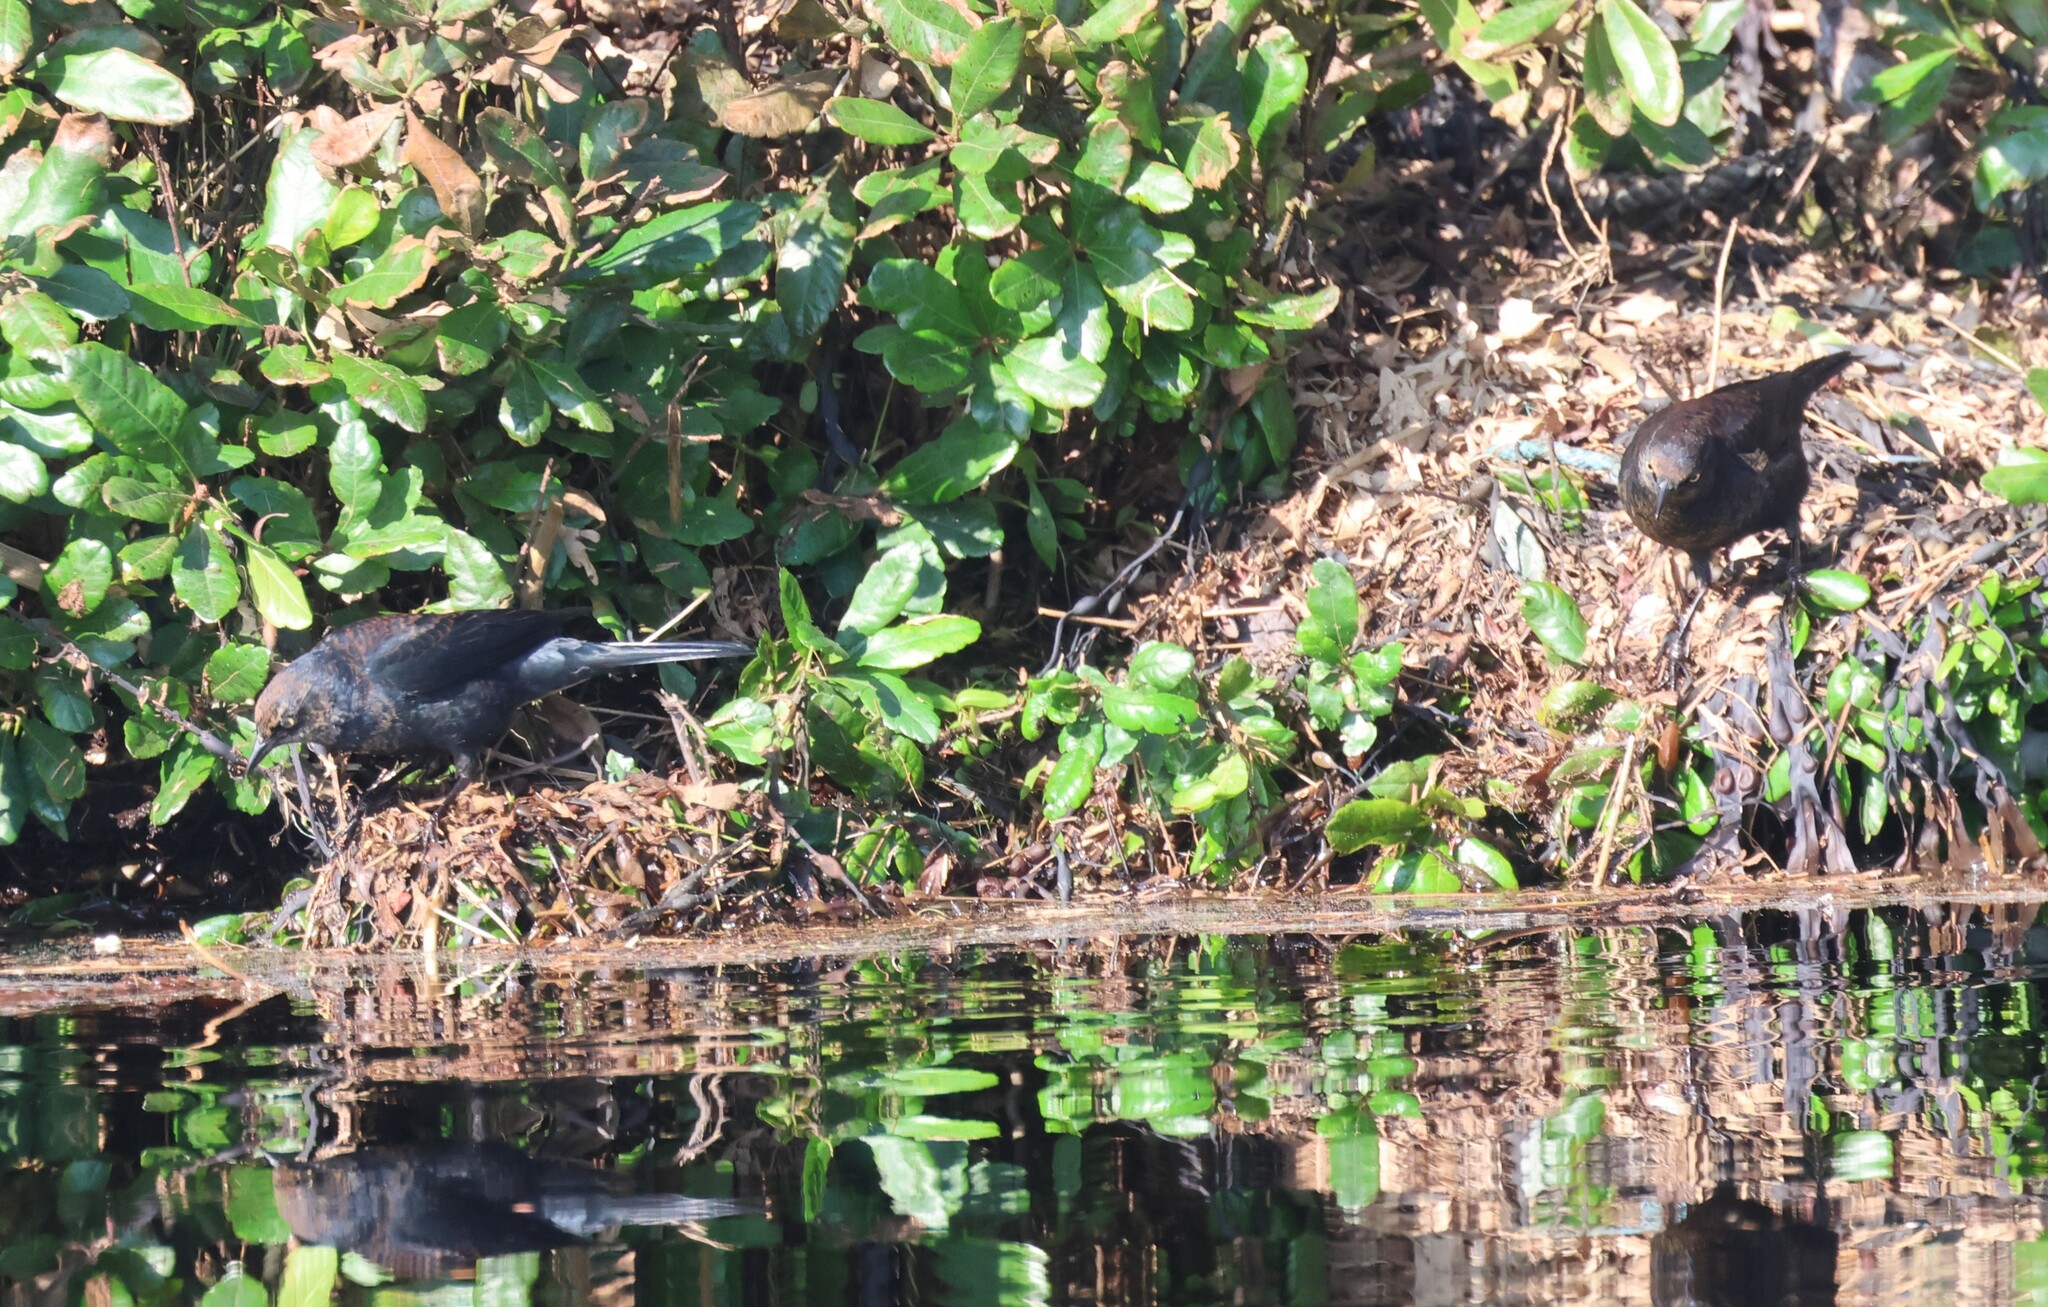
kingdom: Animalia
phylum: Chordata
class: Aves
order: Passeriformes
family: Icteridae
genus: Euphagus
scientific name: Euphagus carolinus
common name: Rusty blackbird
